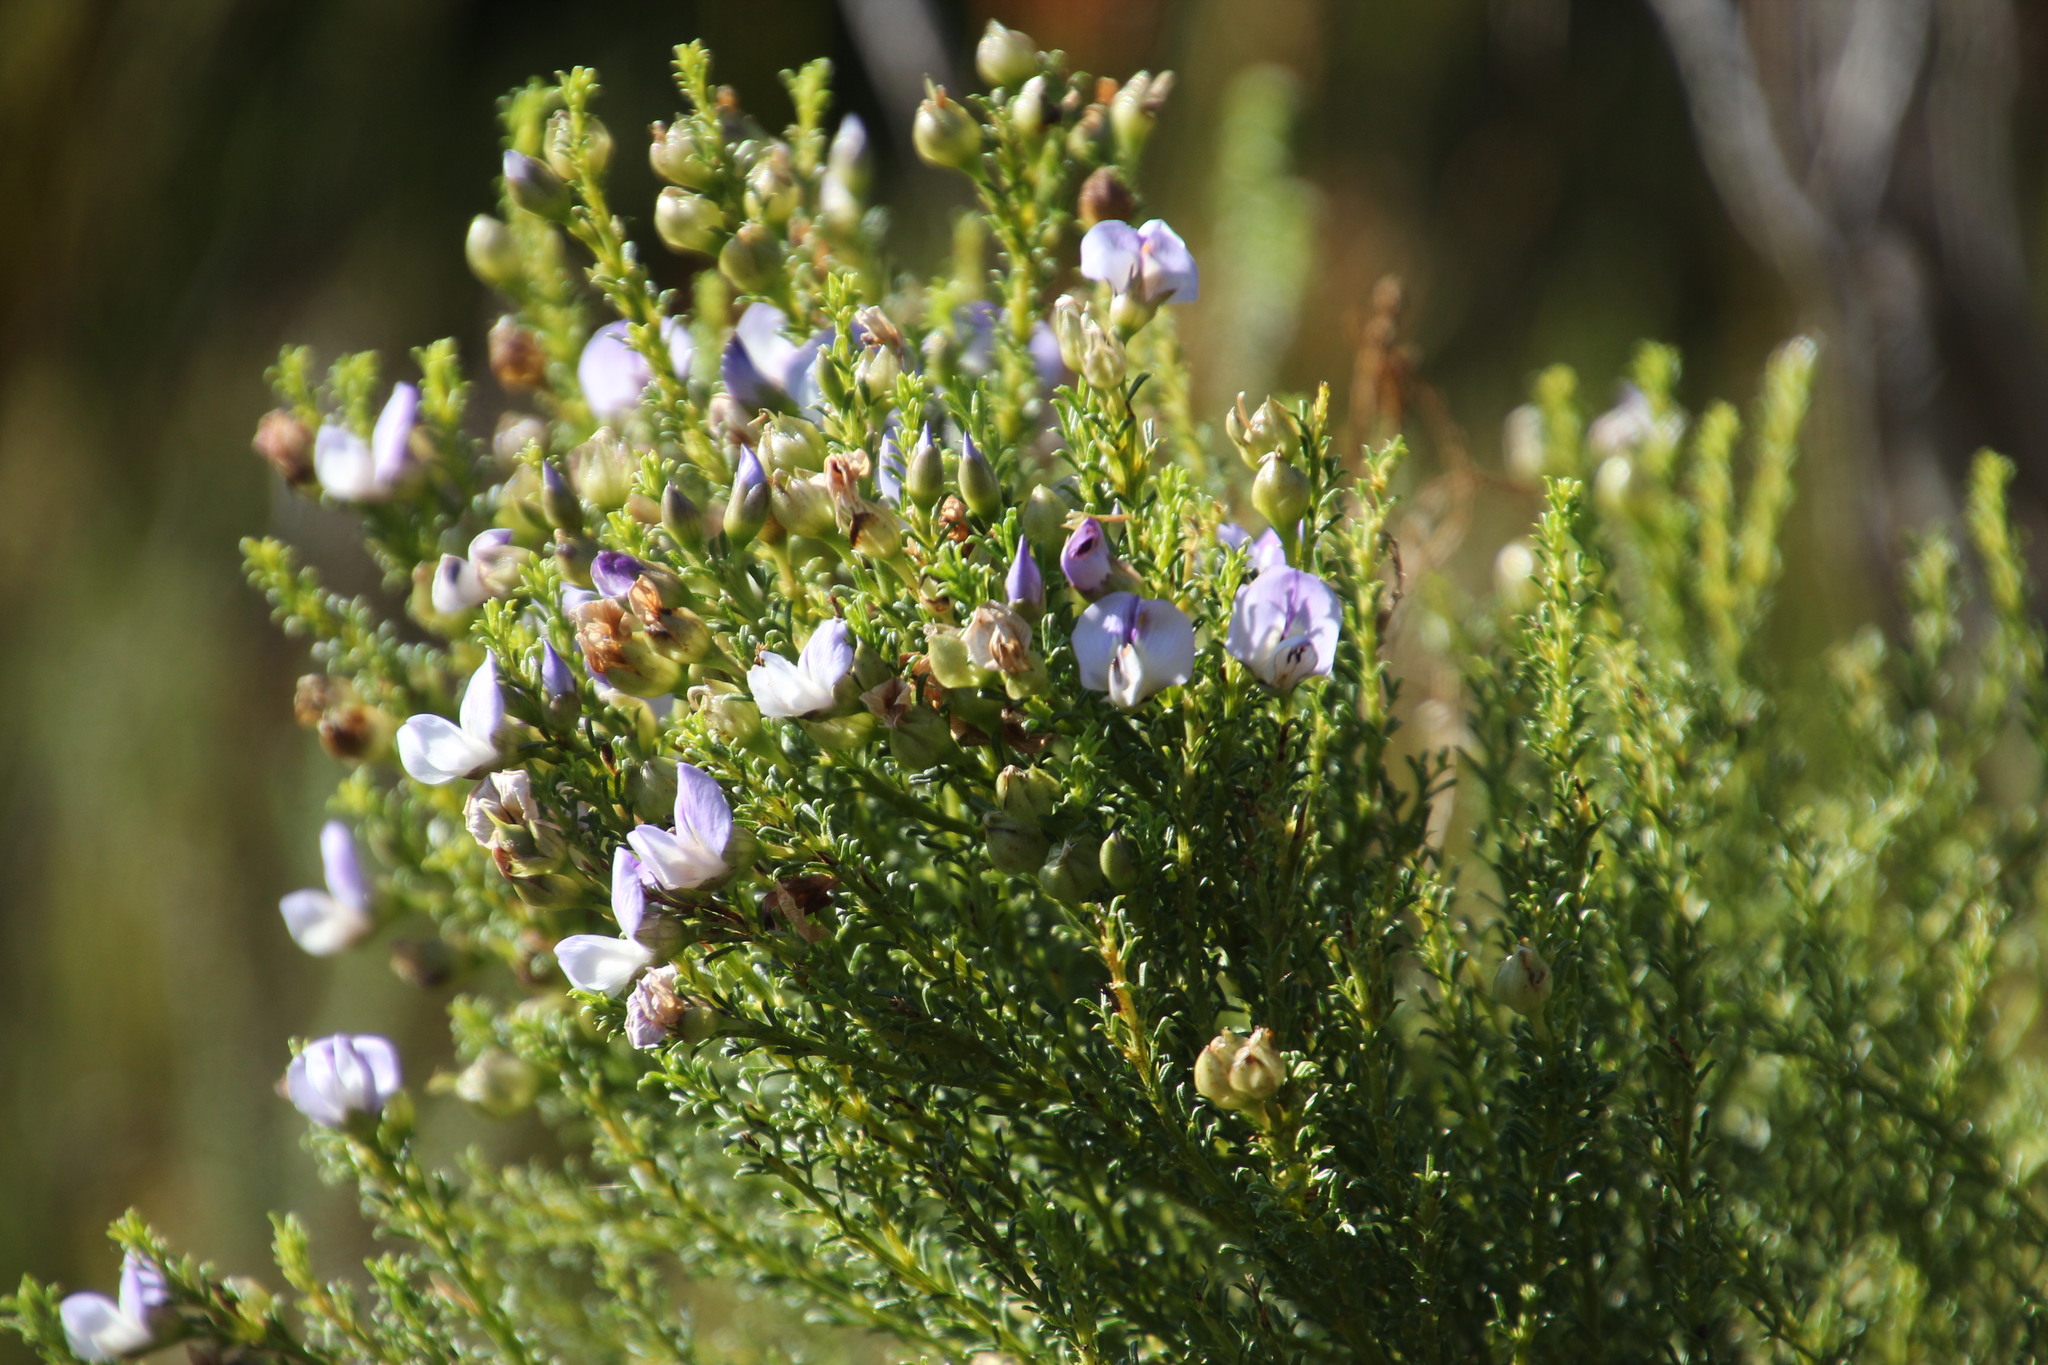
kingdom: Plantae
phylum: Tracheophyta
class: Magnoliopsida
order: Fabales
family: Fabaceae
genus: Psoralea
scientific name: Psoralea aculeata
